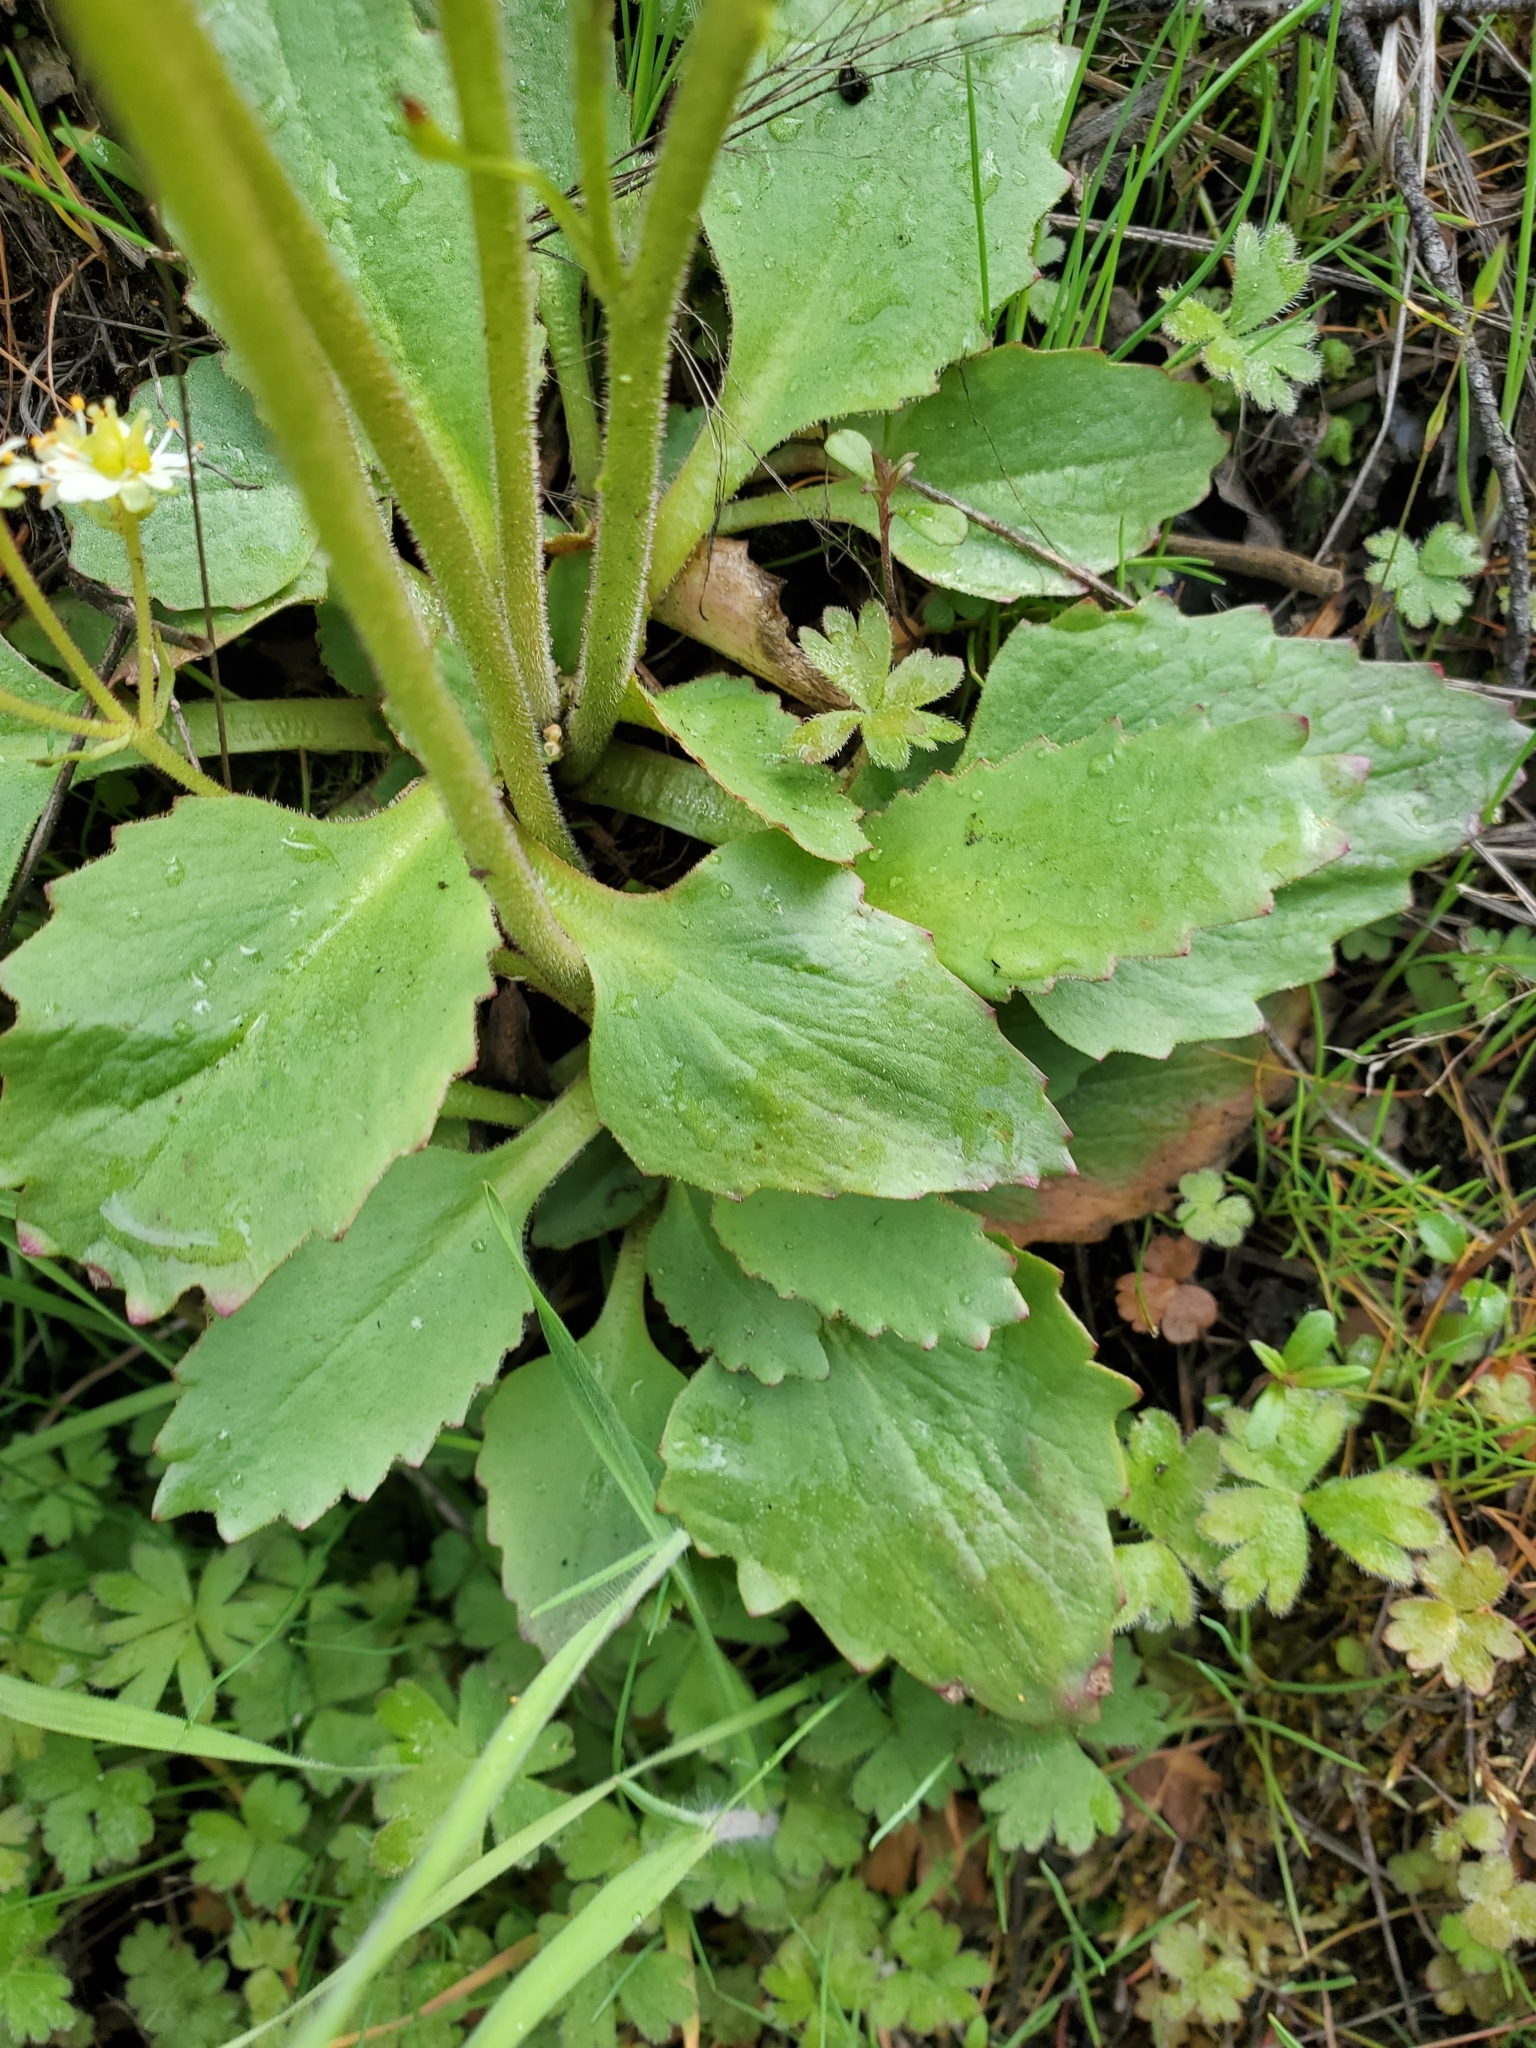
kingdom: Plantae
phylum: Tracheophyta
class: Magnoliopsida
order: Saxifragales
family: Saxifragaceae
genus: Micranthes
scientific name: Micranthes occidentalis
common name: Alberta saxifrage
